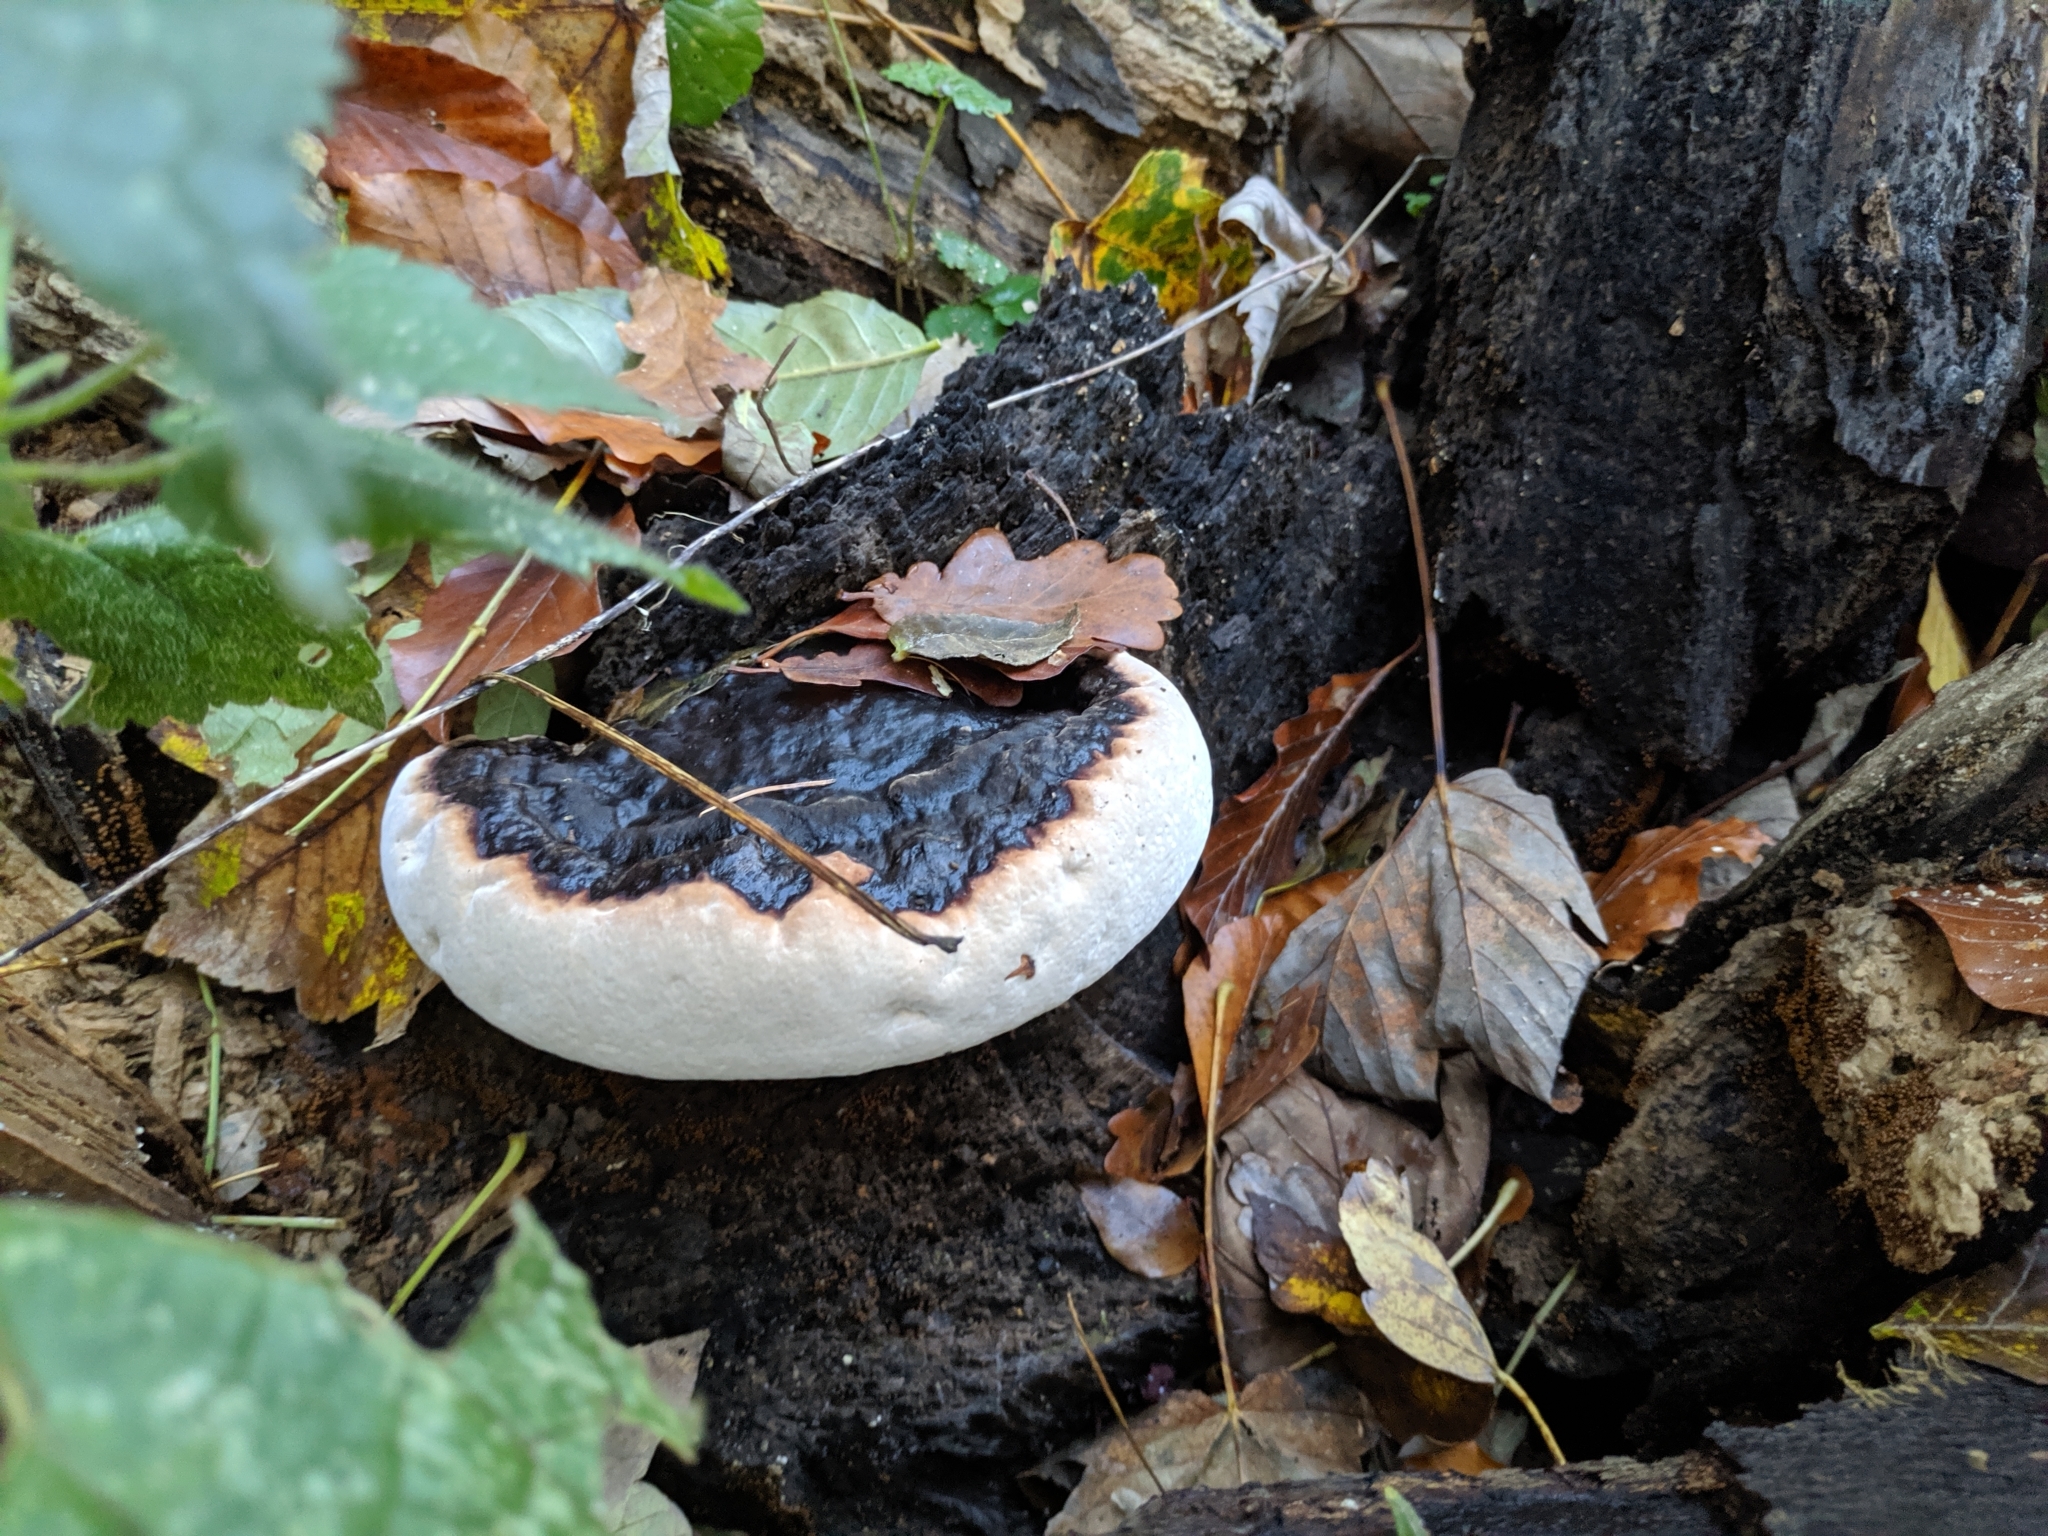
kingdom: Fungi
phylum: Basidiomycota
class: Agaricomycetes
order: Polyporales
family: Fomitopsidaceae
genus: Fomitopsis
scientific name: Fomitopsis pinicola
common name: Red-belted bracket
